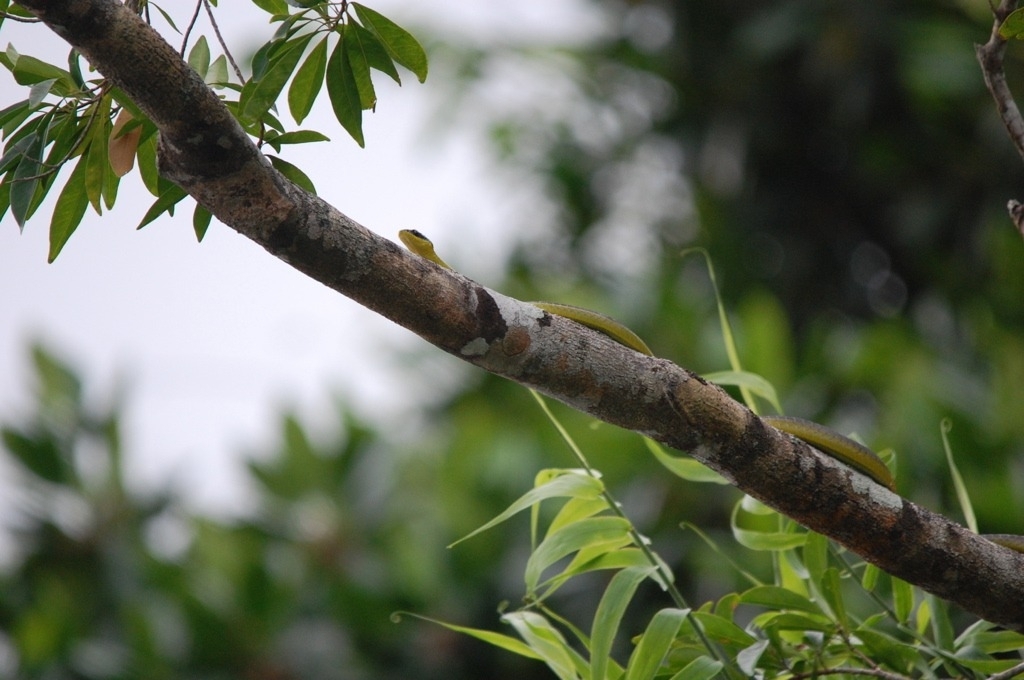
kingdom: Animalia
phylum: Chordata
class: Squamata
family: Colubridae
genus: Dendrelaphis
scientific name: Dendrelaphis punctulatus
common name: Common tree snake
